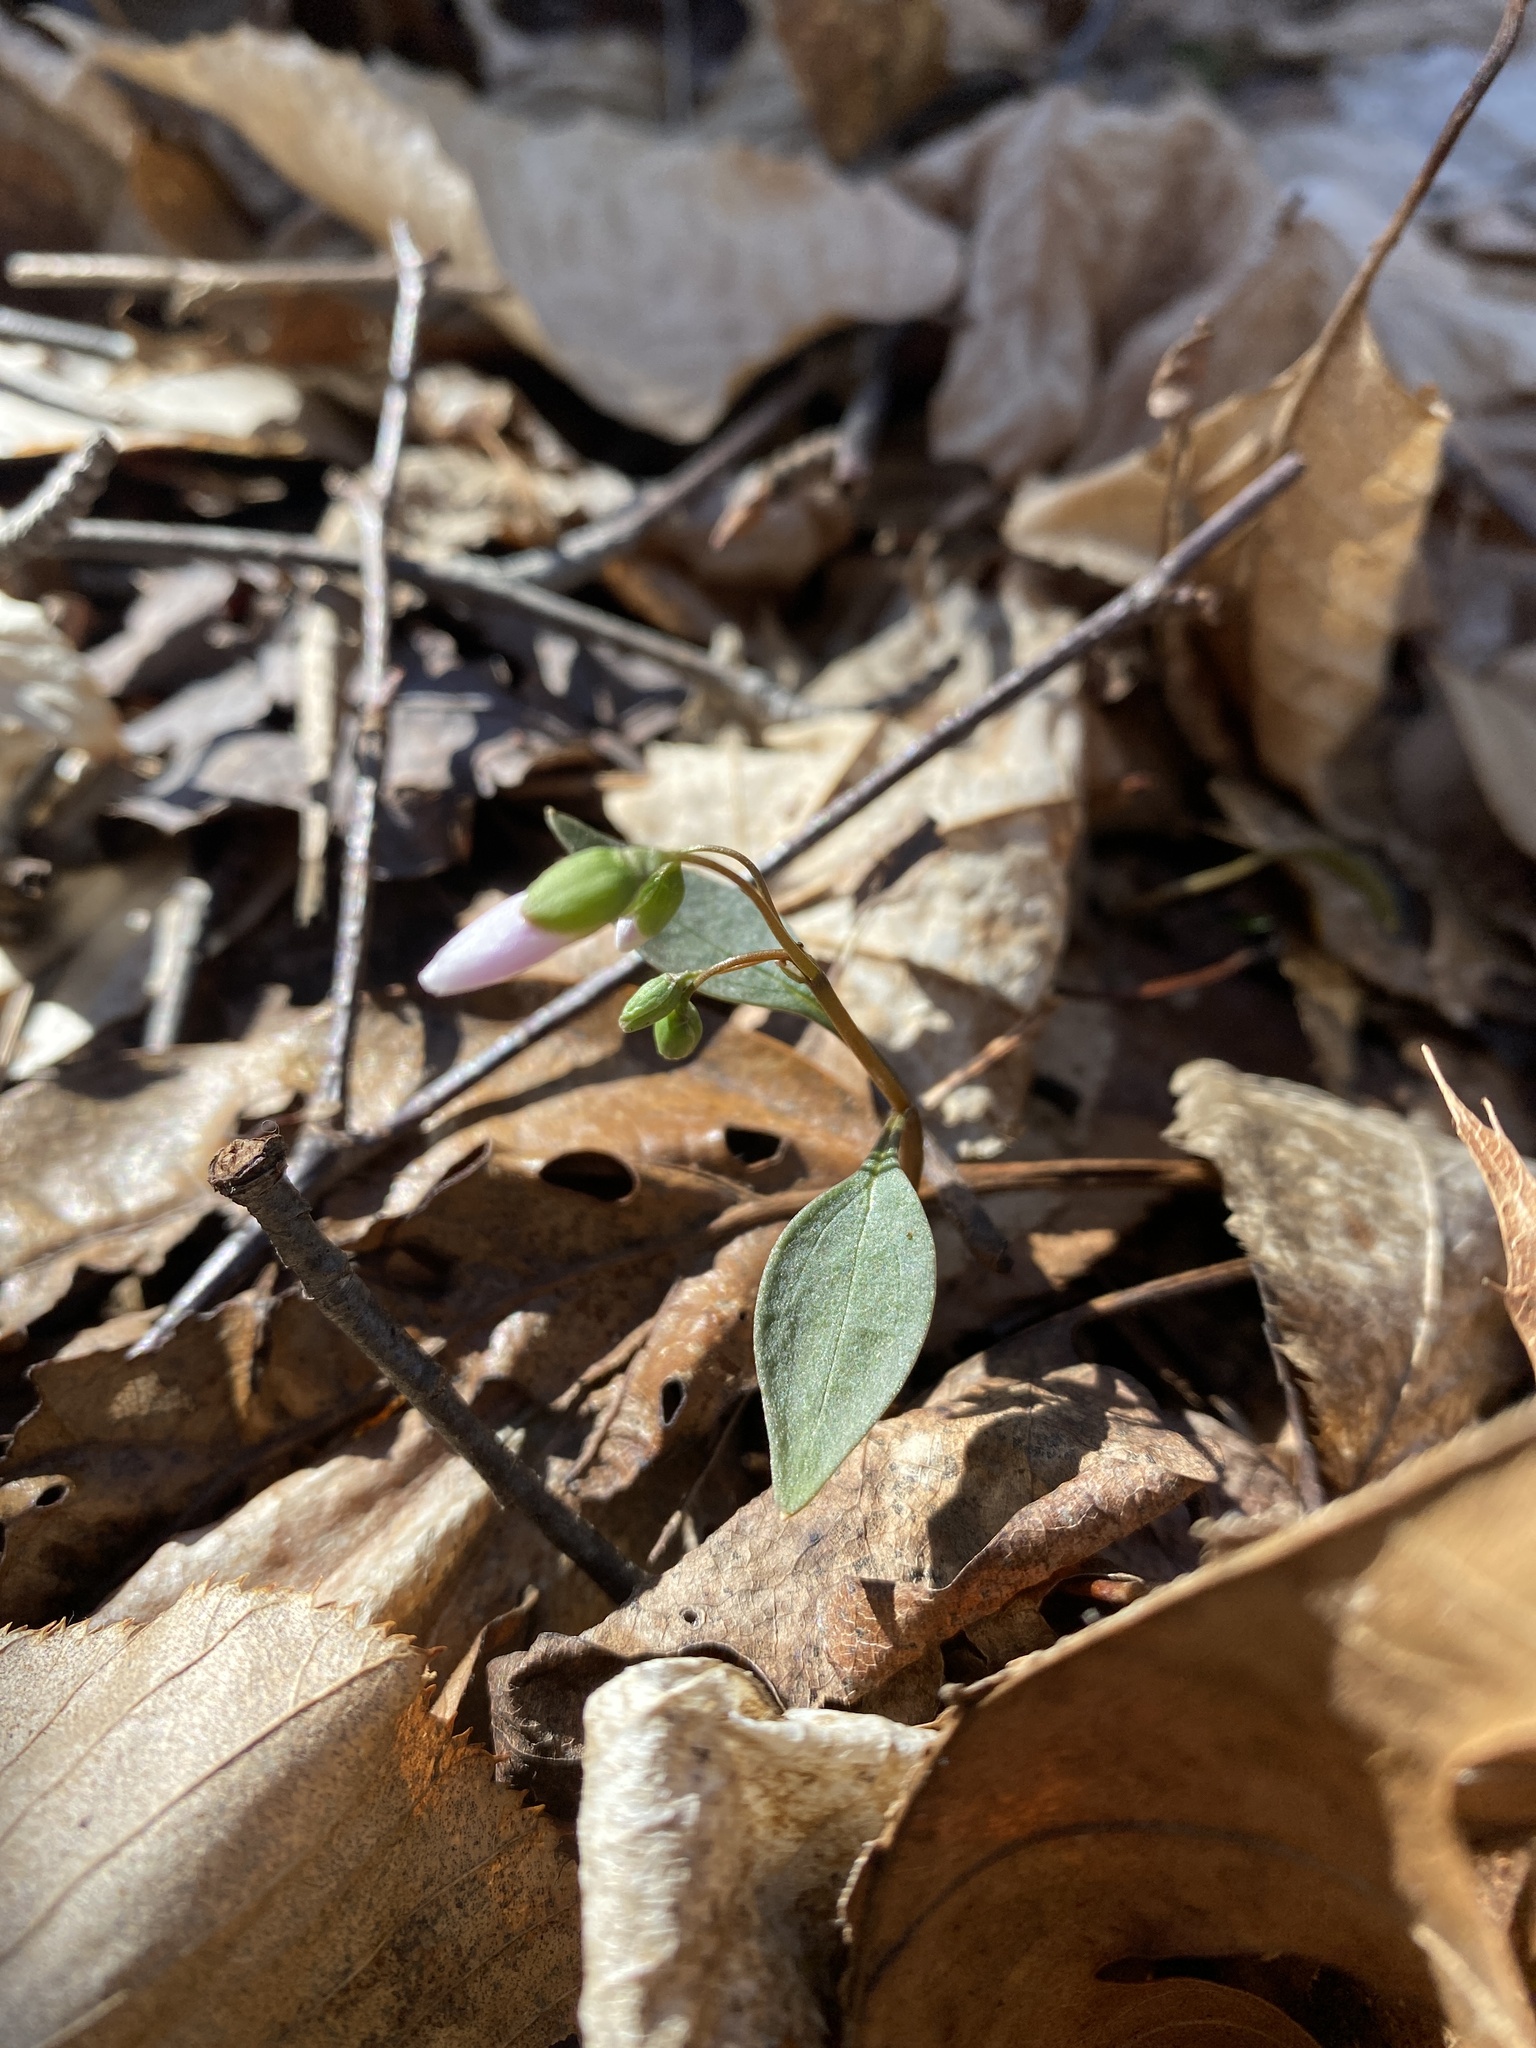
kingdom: Plantae
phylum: Tracheophyta
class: Magnoliopsida
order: Caryophyllales
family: Montiaceae
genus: Claytonia
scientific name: Claytonia caroliniana
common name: Carolina spring beauty
